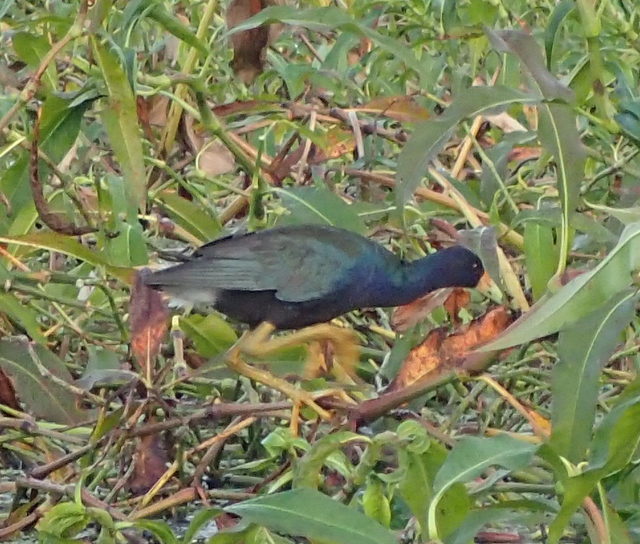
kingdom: Animalia
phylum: Chordata
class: Aves
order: Gruiformes
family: Rallidae
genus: Porphyrio
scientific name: Porphyrio martinica
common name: Purple gallinule
